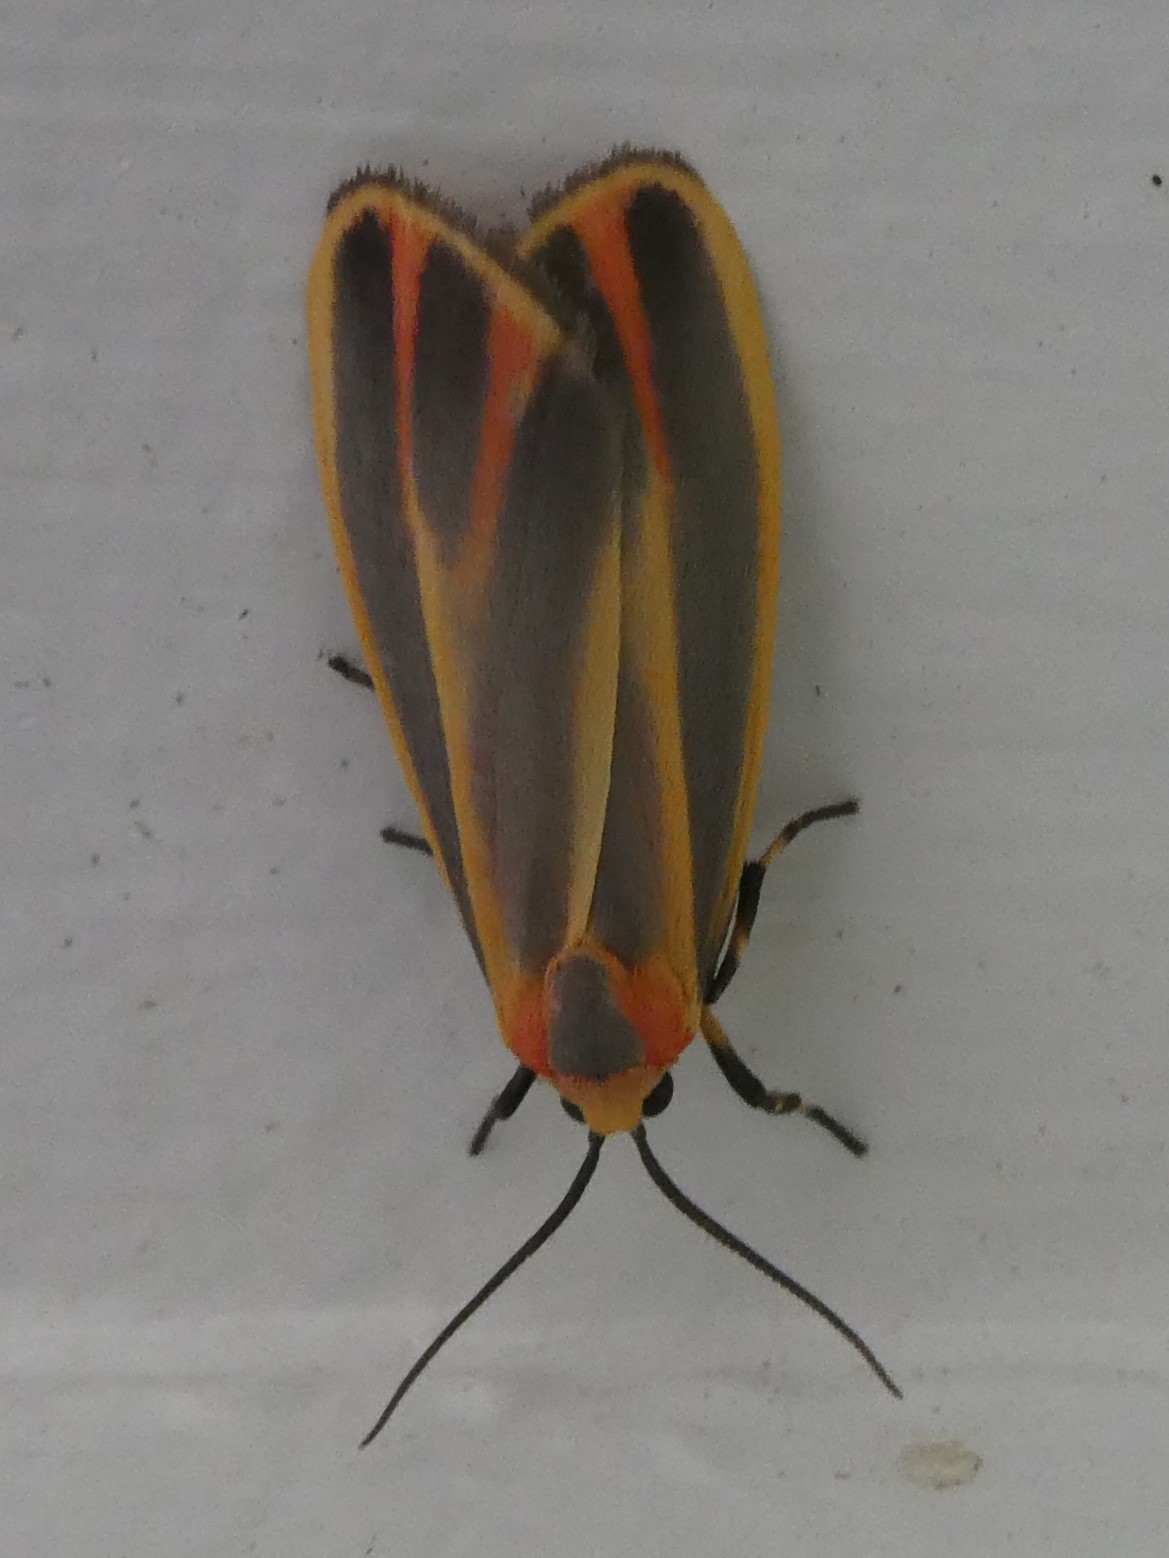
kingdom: Animalia
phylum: Arthropoda
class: Insecta
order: Lepidoptera
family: Erebidae
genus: Hypoprepia
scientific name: Hypoprepia fucosa
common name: Painted lichen moth
